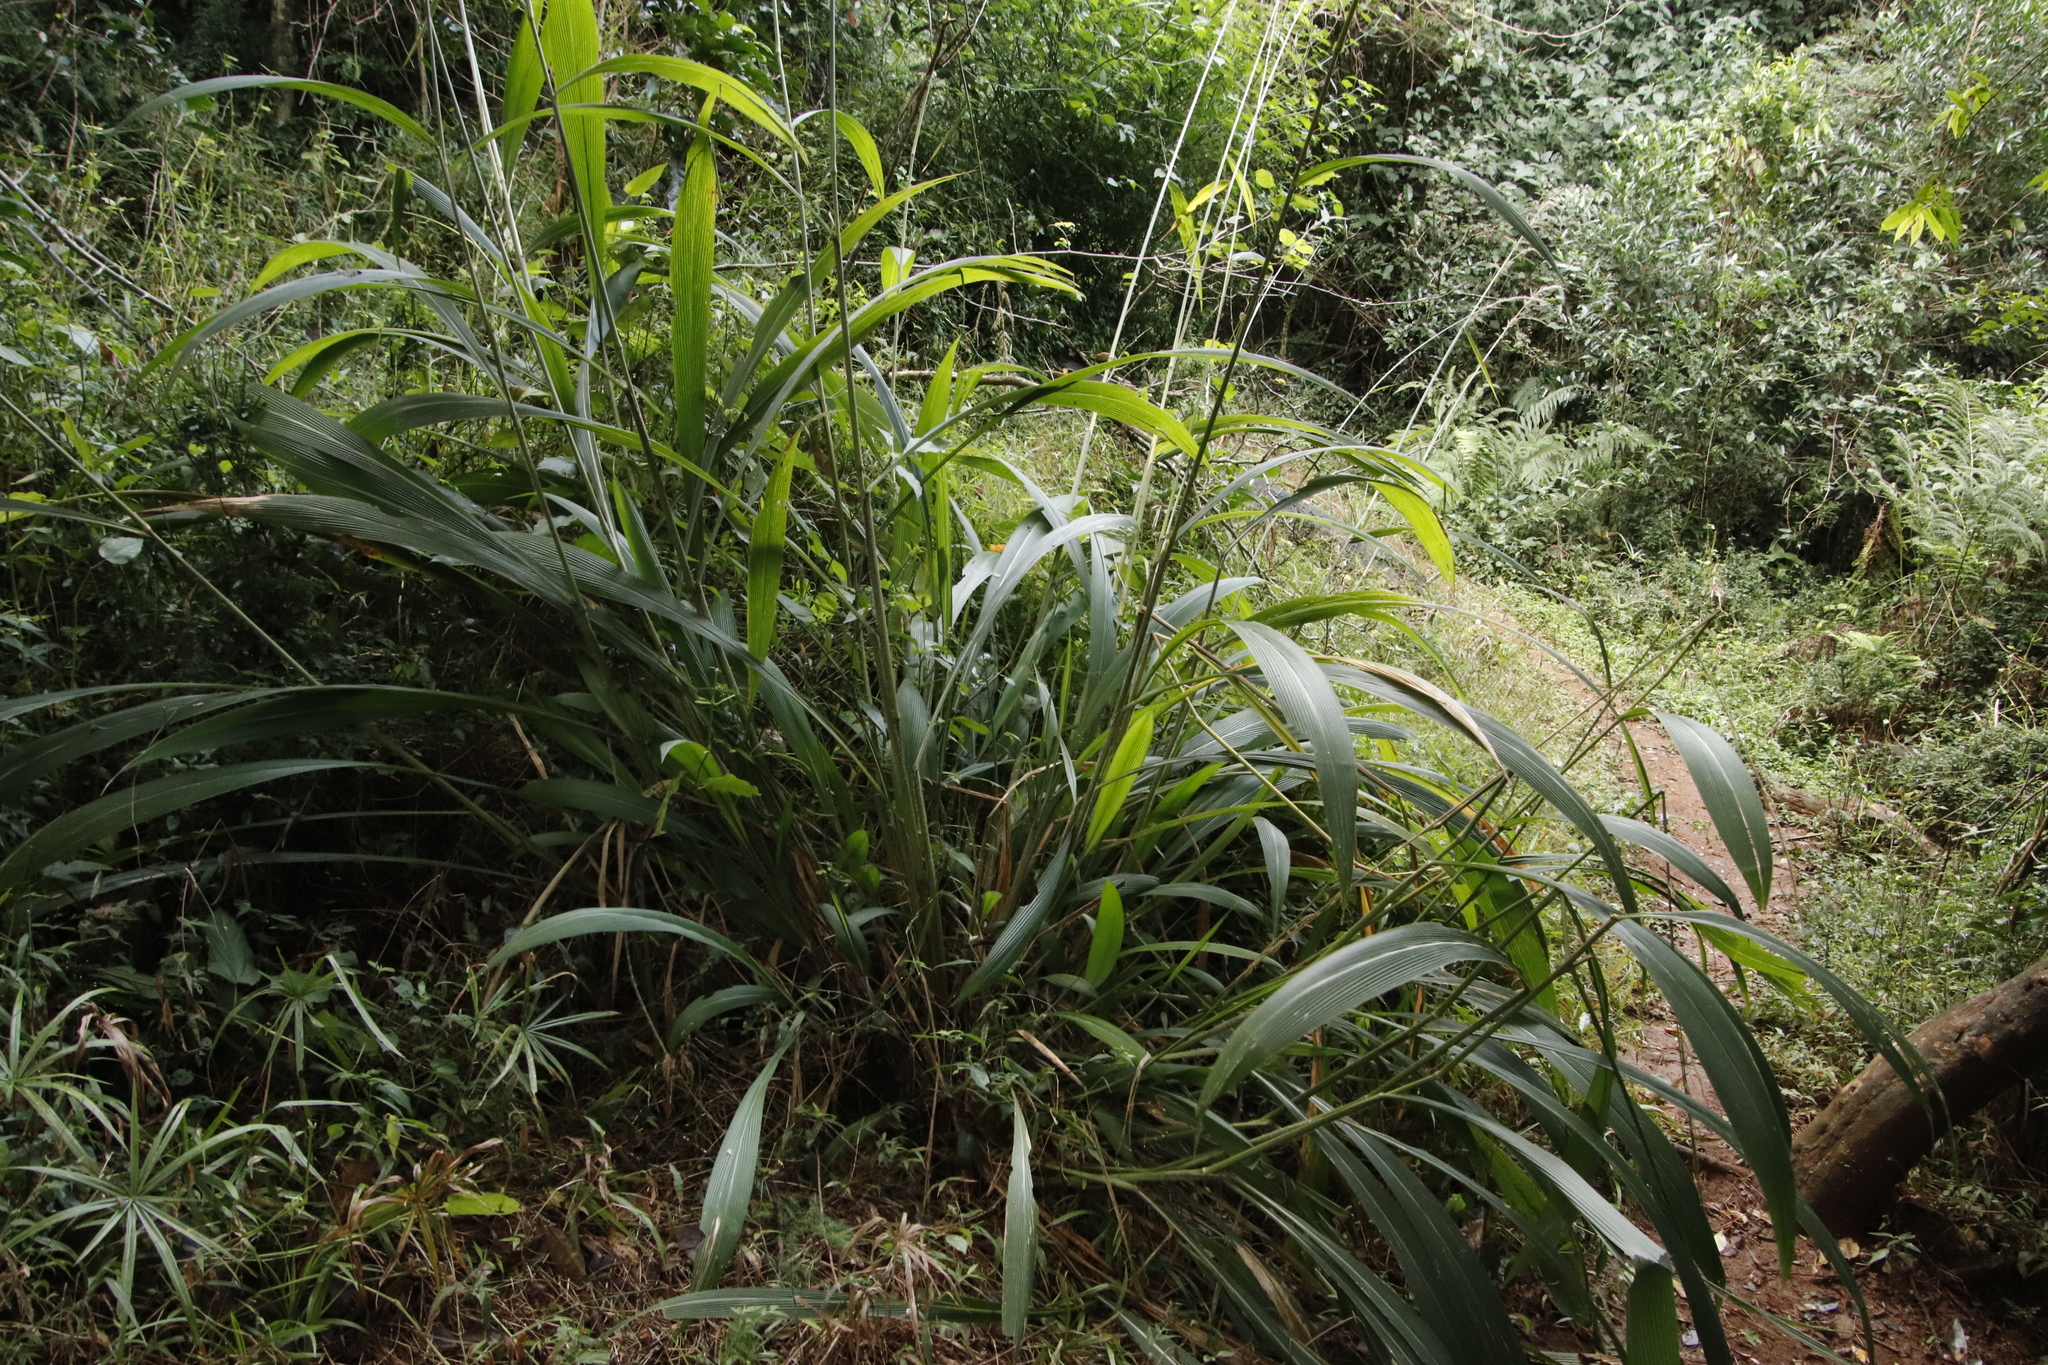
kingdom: Plantae
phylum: Tracheophyta
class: Liliopsida
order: Poales
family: Poaceae
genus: Setaria
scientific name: Setaria megaphylla
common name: Bigleaf bristlegrass
